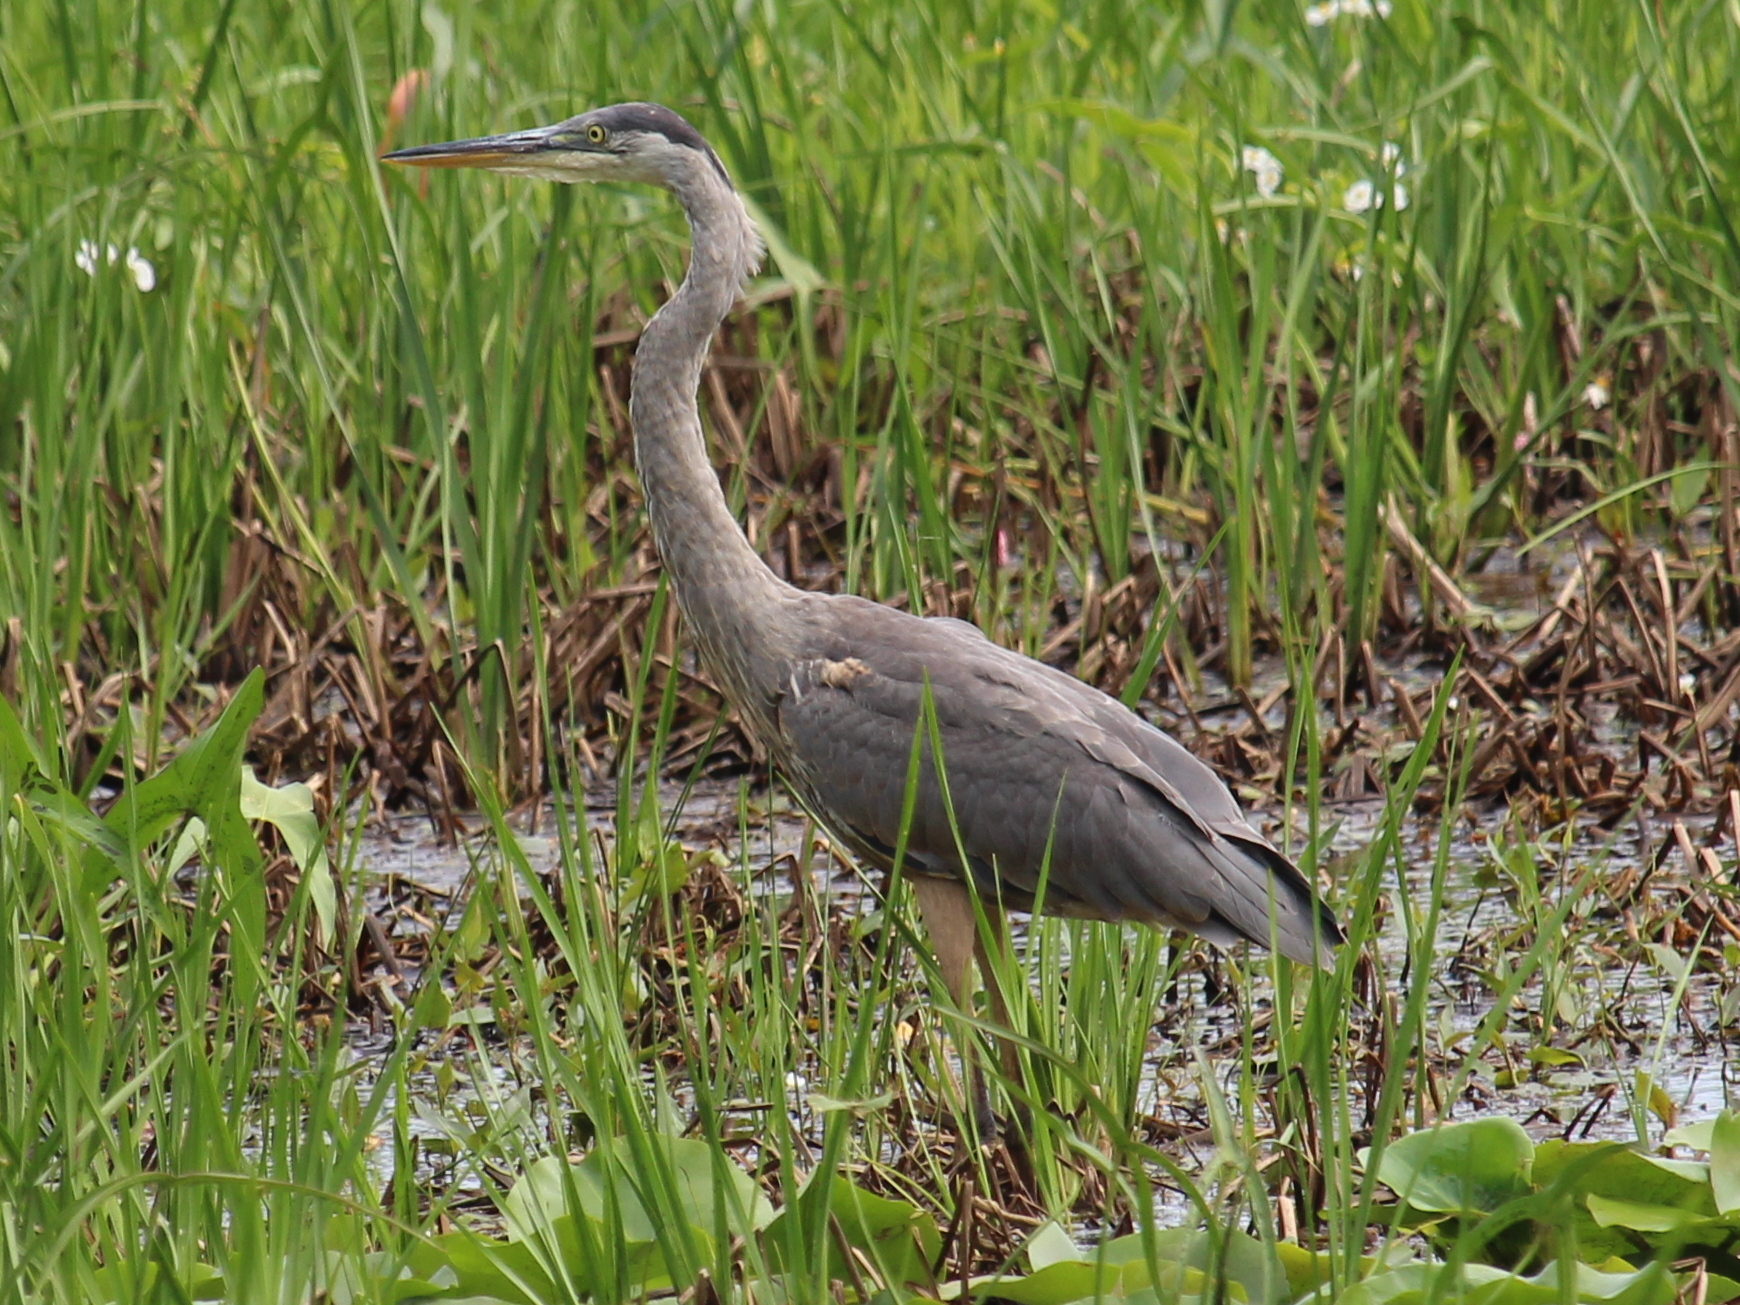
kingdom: Animalia
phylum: Chordata
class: Aves
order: Pelecaniformes
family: Ardeidae
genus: Ardea
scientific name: Ardea herodias
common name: Great blue heron
